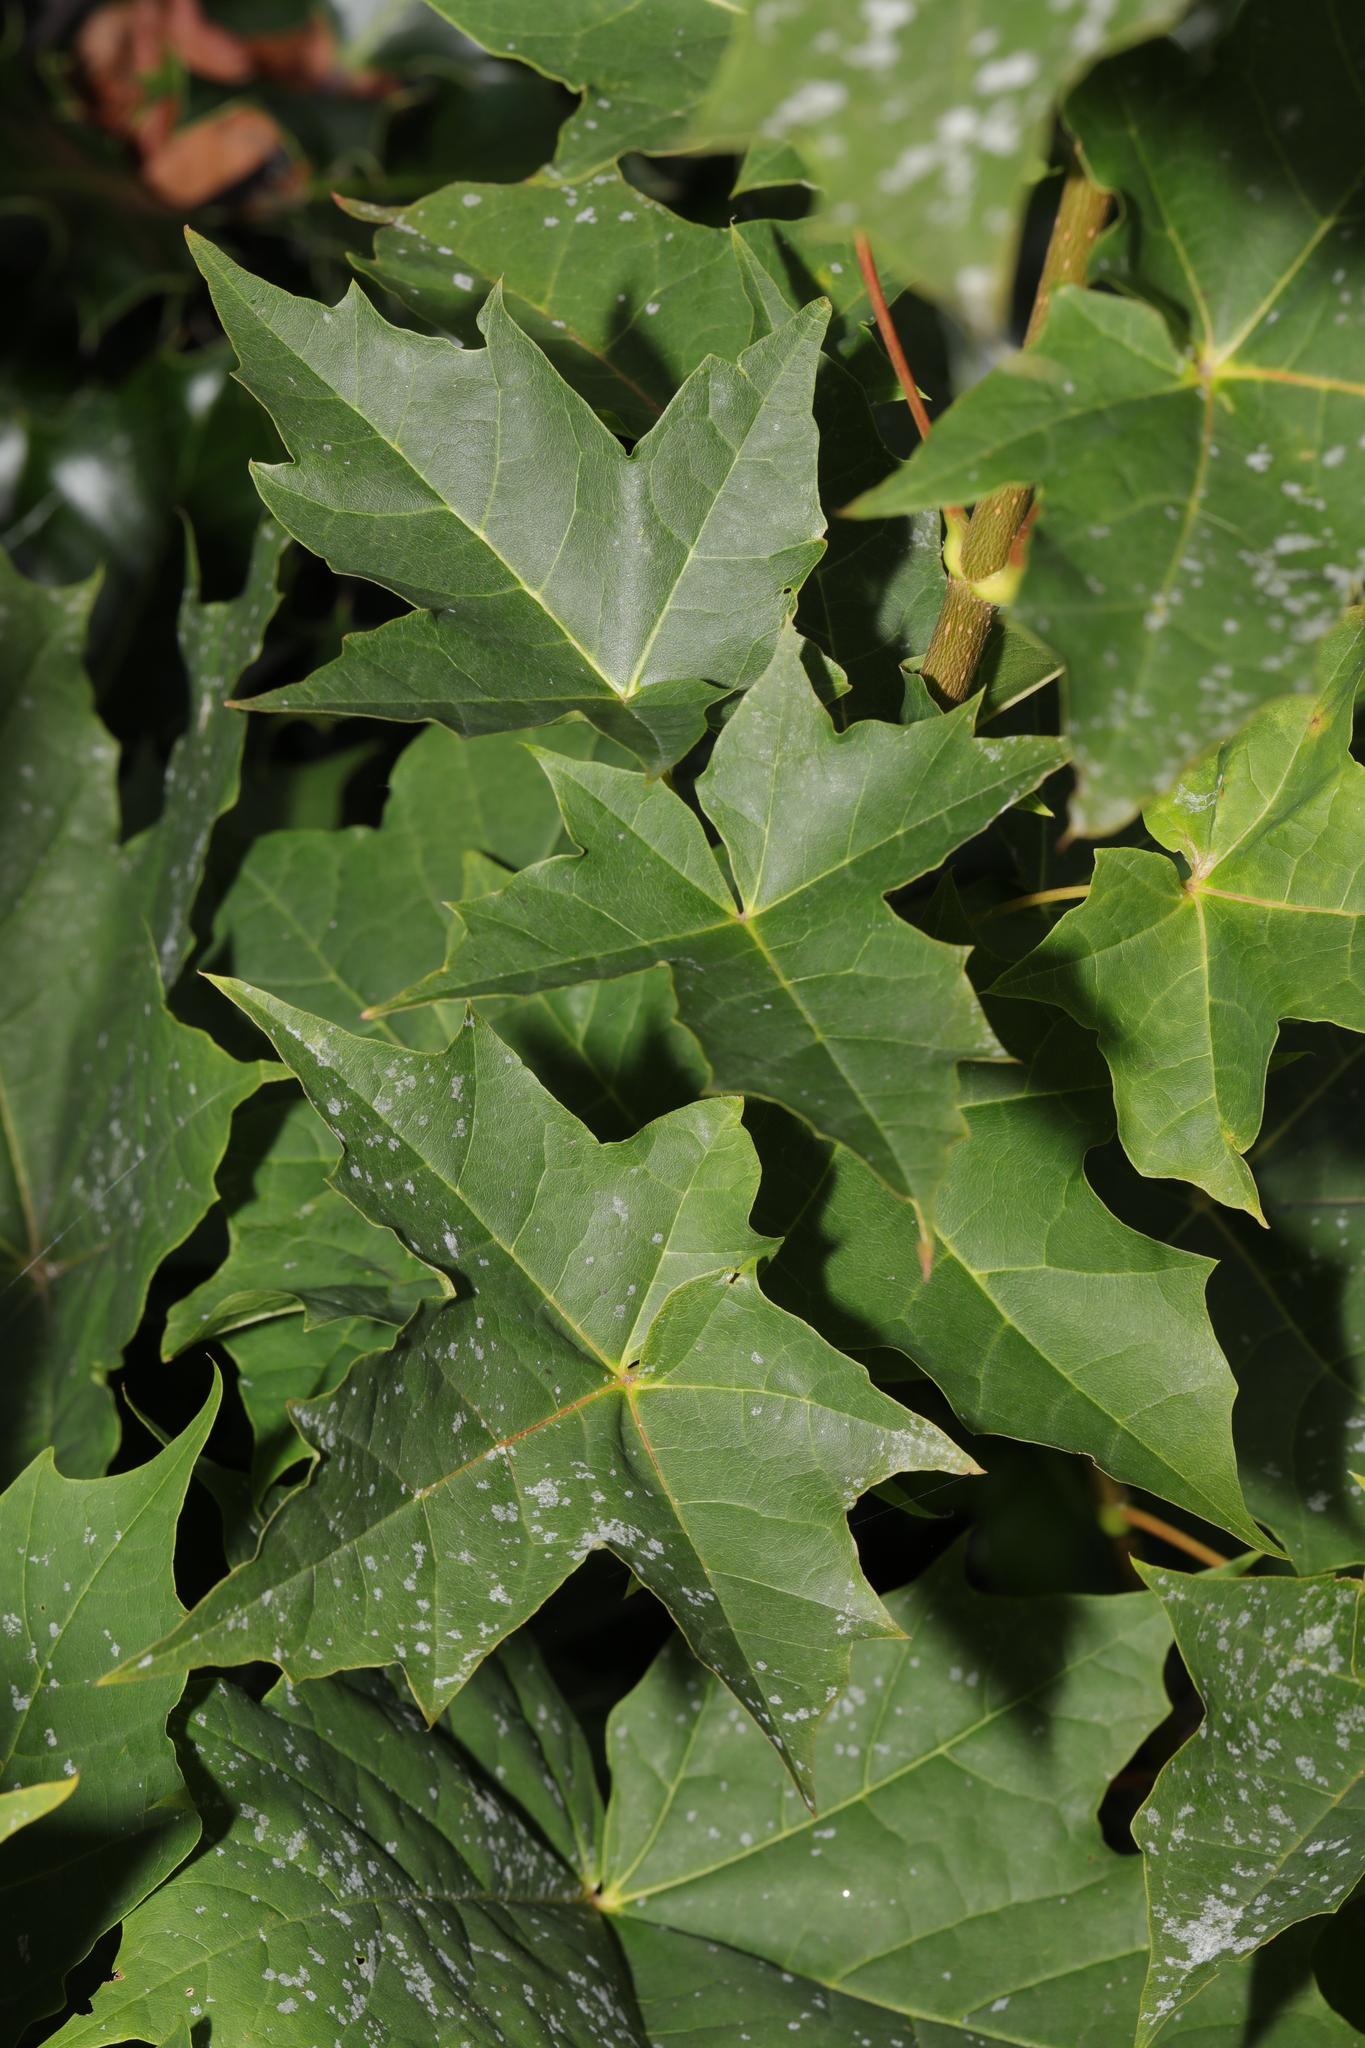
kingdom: Plantae
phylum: Tracheophyta
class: Magnoliopsida
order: Sapindales
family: Sapindaceae
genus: Acer
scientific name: Acer platanoides
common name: Norway maple
